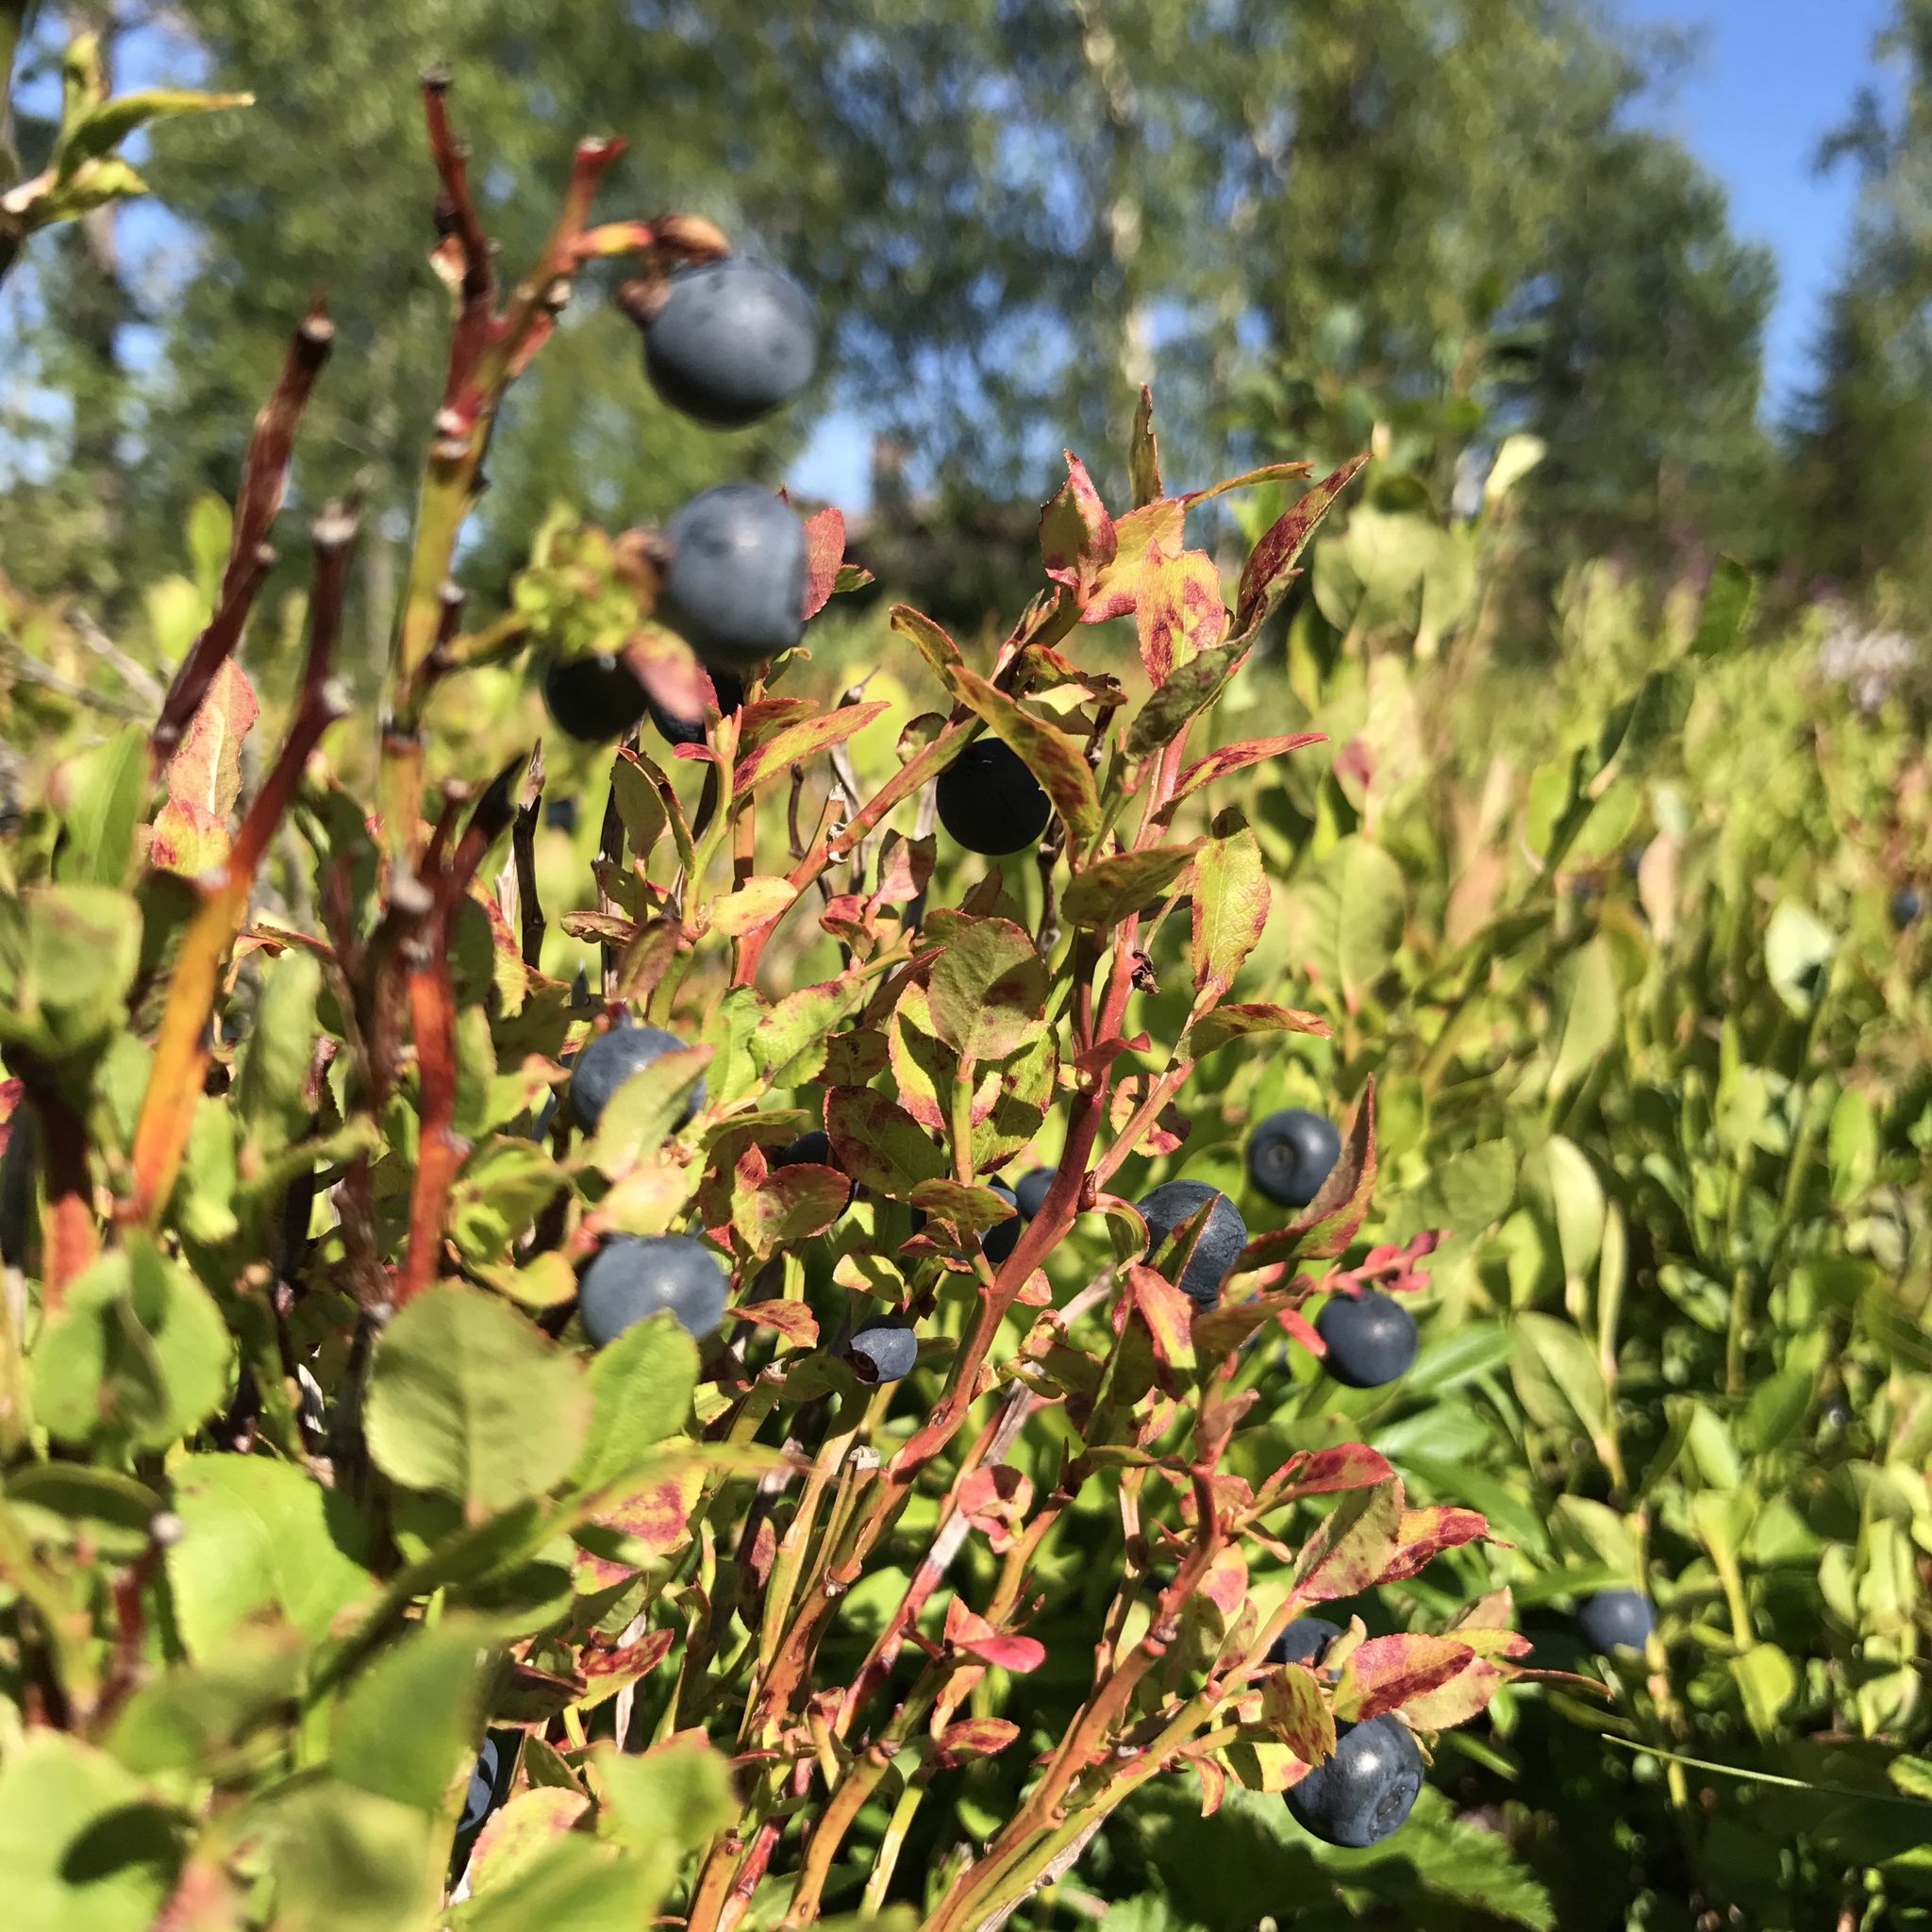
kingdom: Plantae
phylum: Tracheophyta
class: Magnoliopsida
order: Ericales
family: Ericaceae
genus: Vaccinium
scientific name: Vaccinium myrtillus
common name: Bilberry
